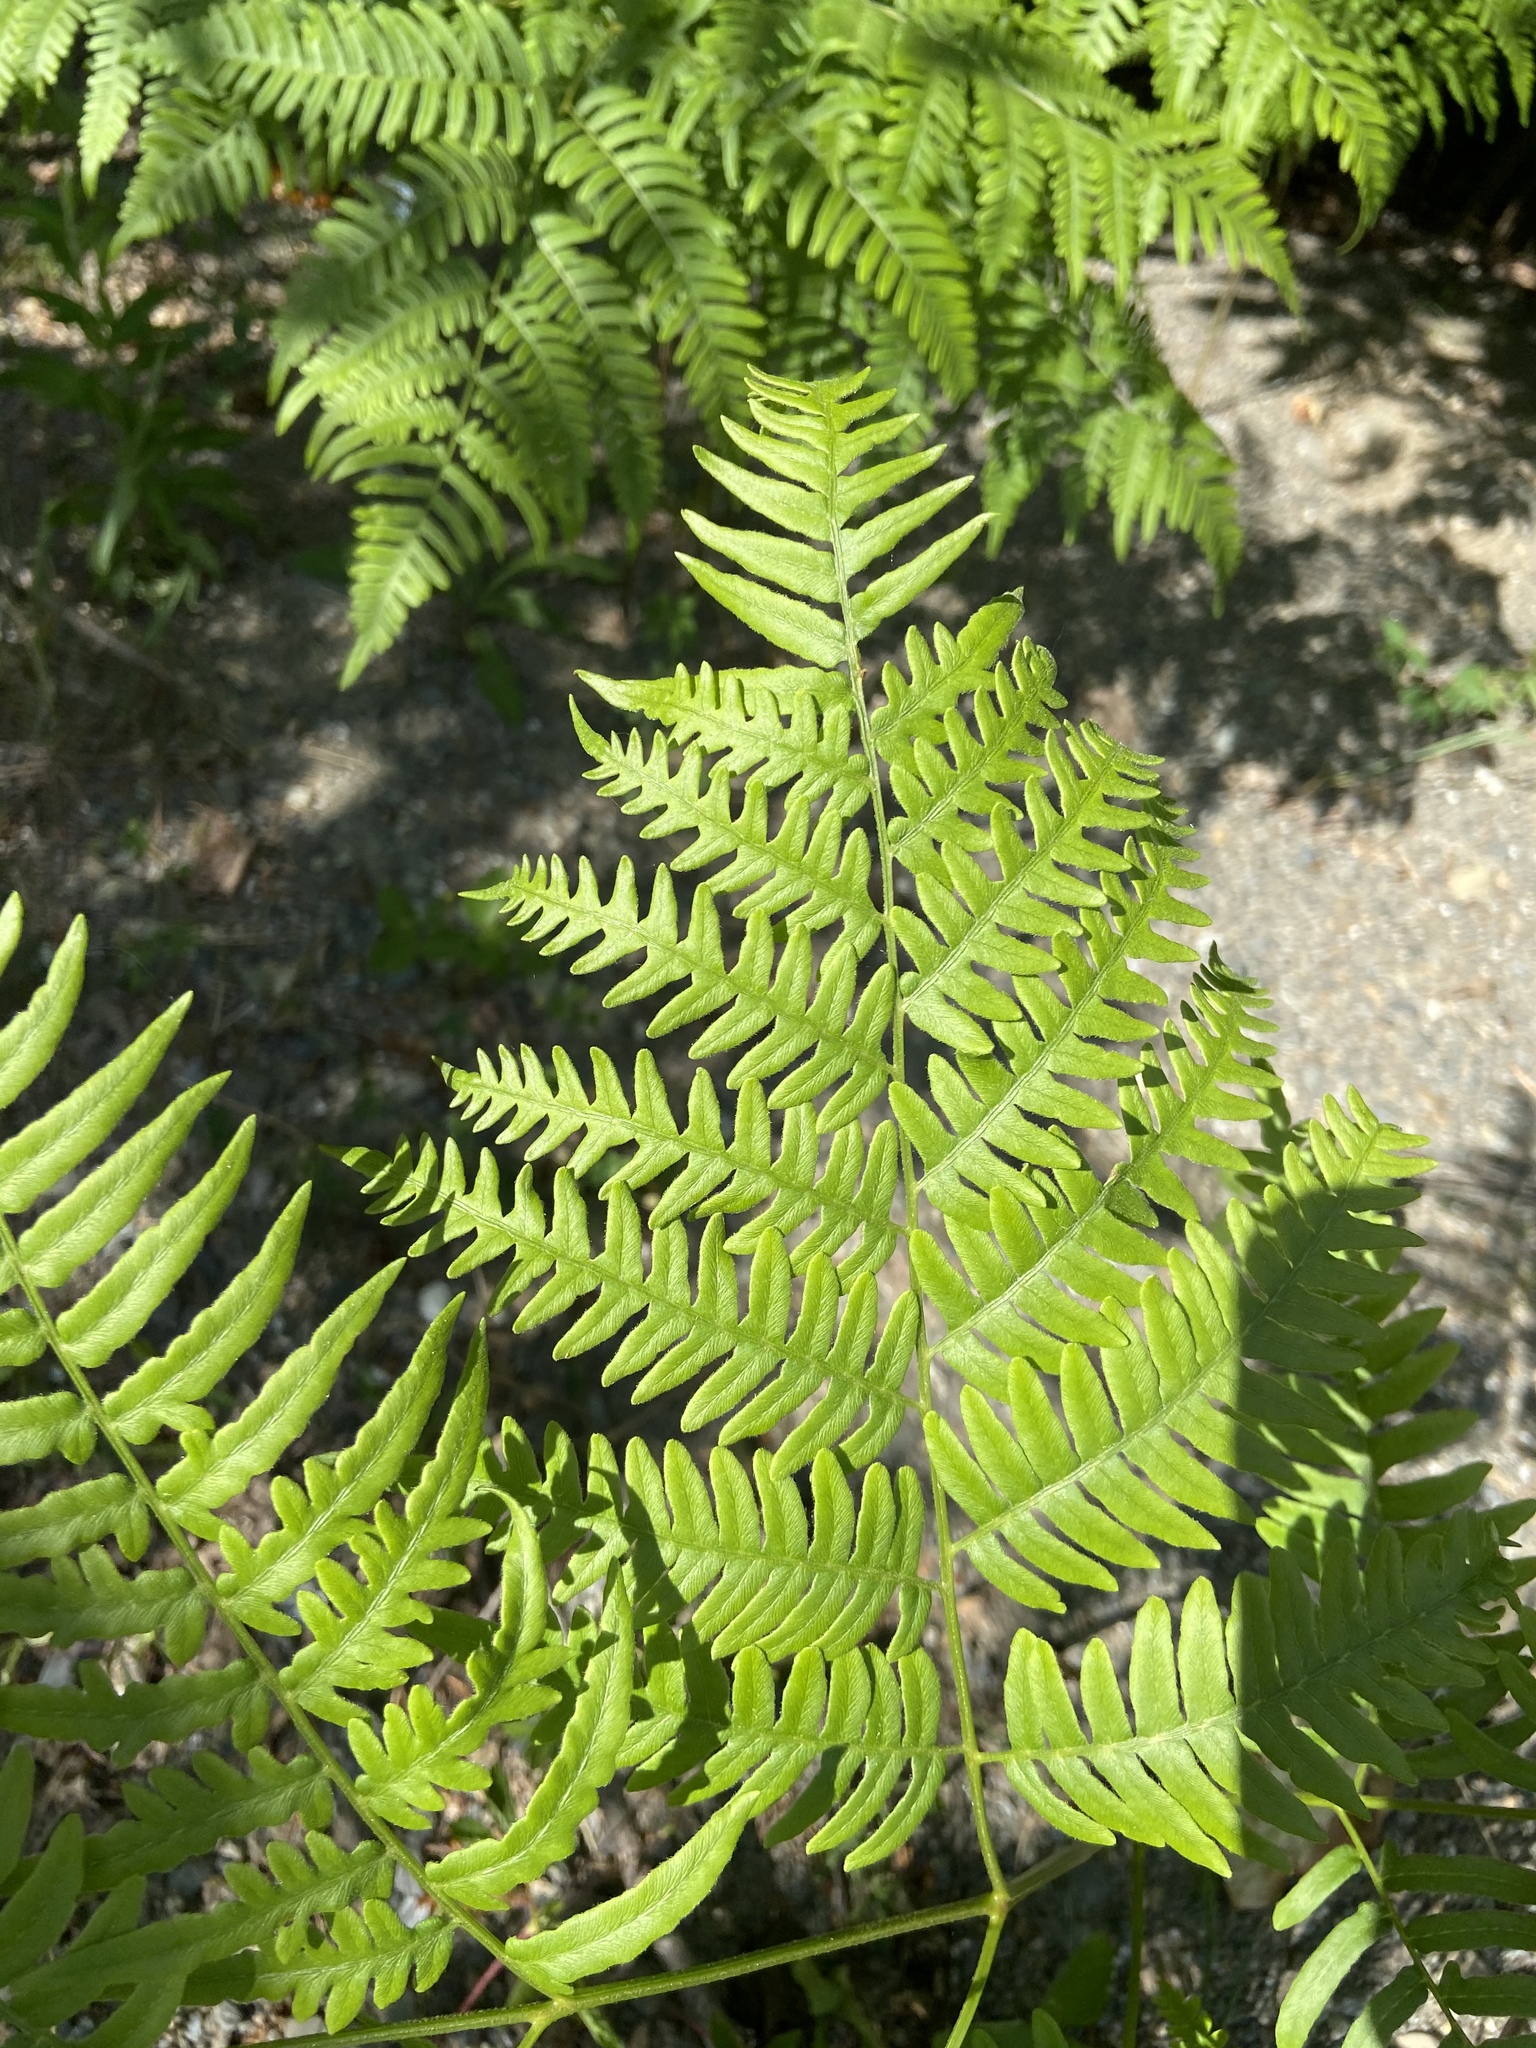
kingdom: Plantae
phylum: Tracheophyta
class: Polypodiopsida
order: Polypodiales
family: Dennstaedtiaceae
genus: Pteridium
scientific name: Pteridium aquilinum
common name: Bracken
